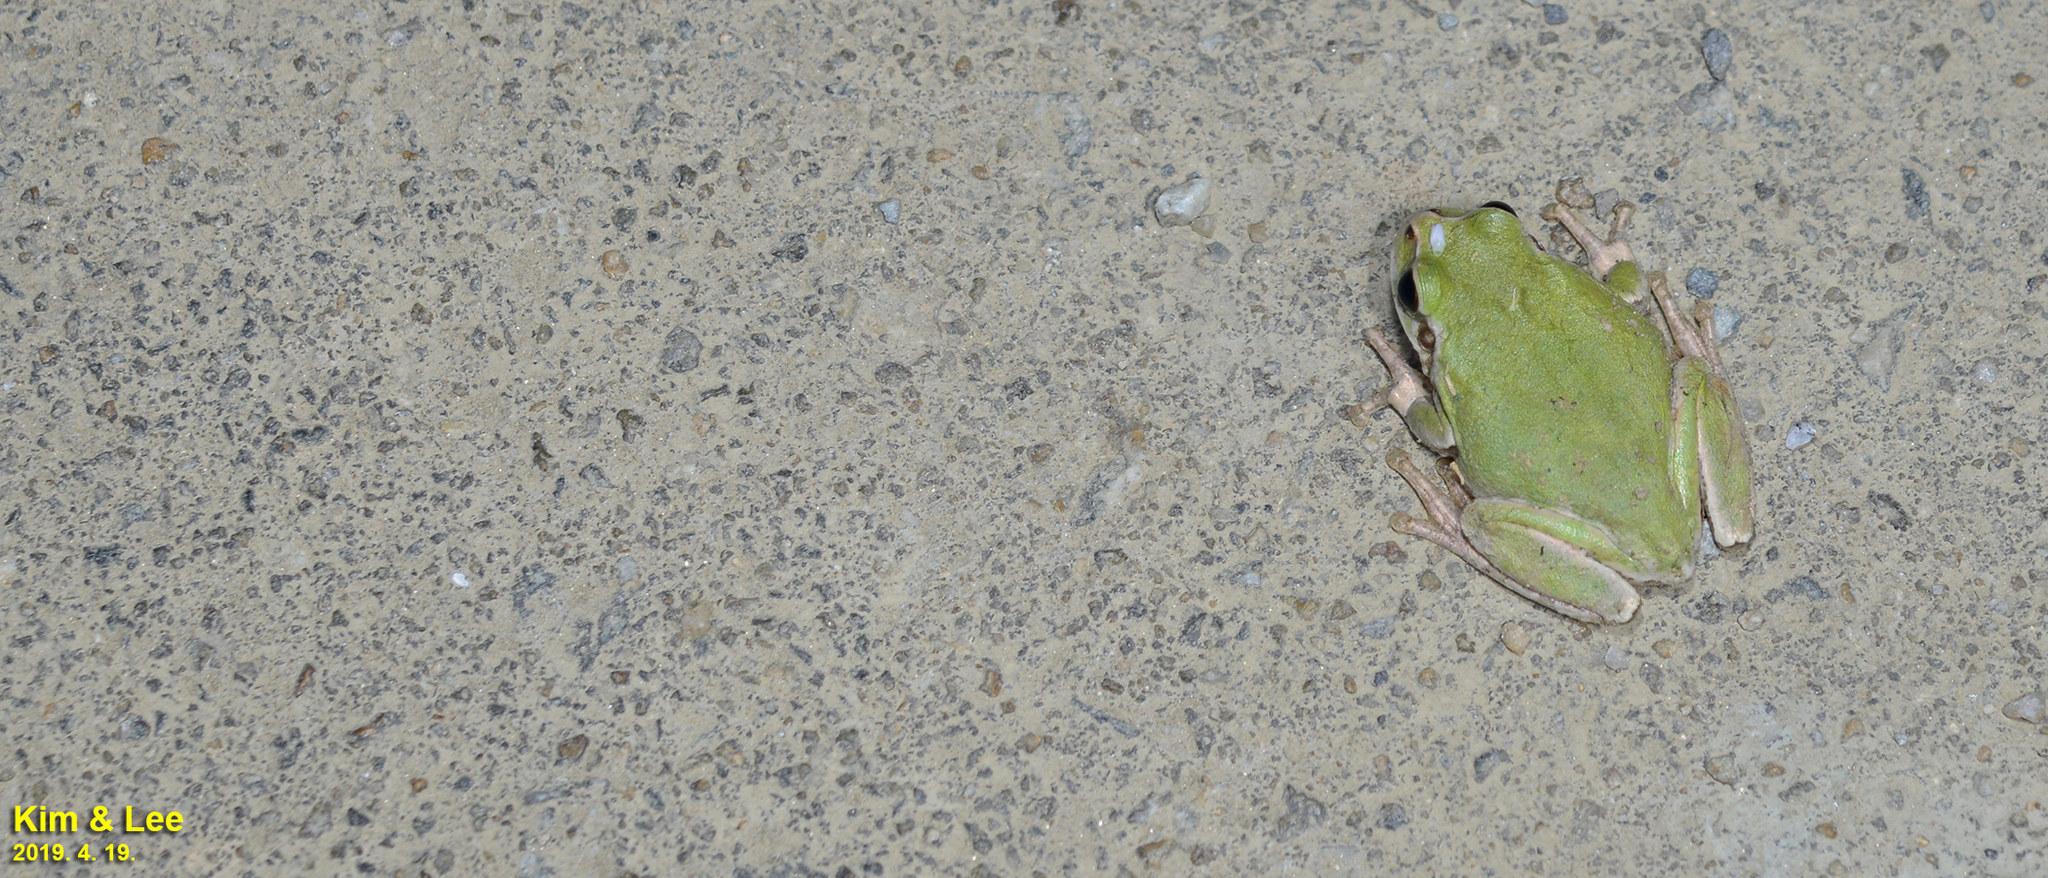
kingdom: Animalia
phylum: Chordata
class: Amphibia
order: Anura
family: Hylidae
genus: Dryophytes
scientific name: Dryophytes japonicus
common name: Japanese treefrog
